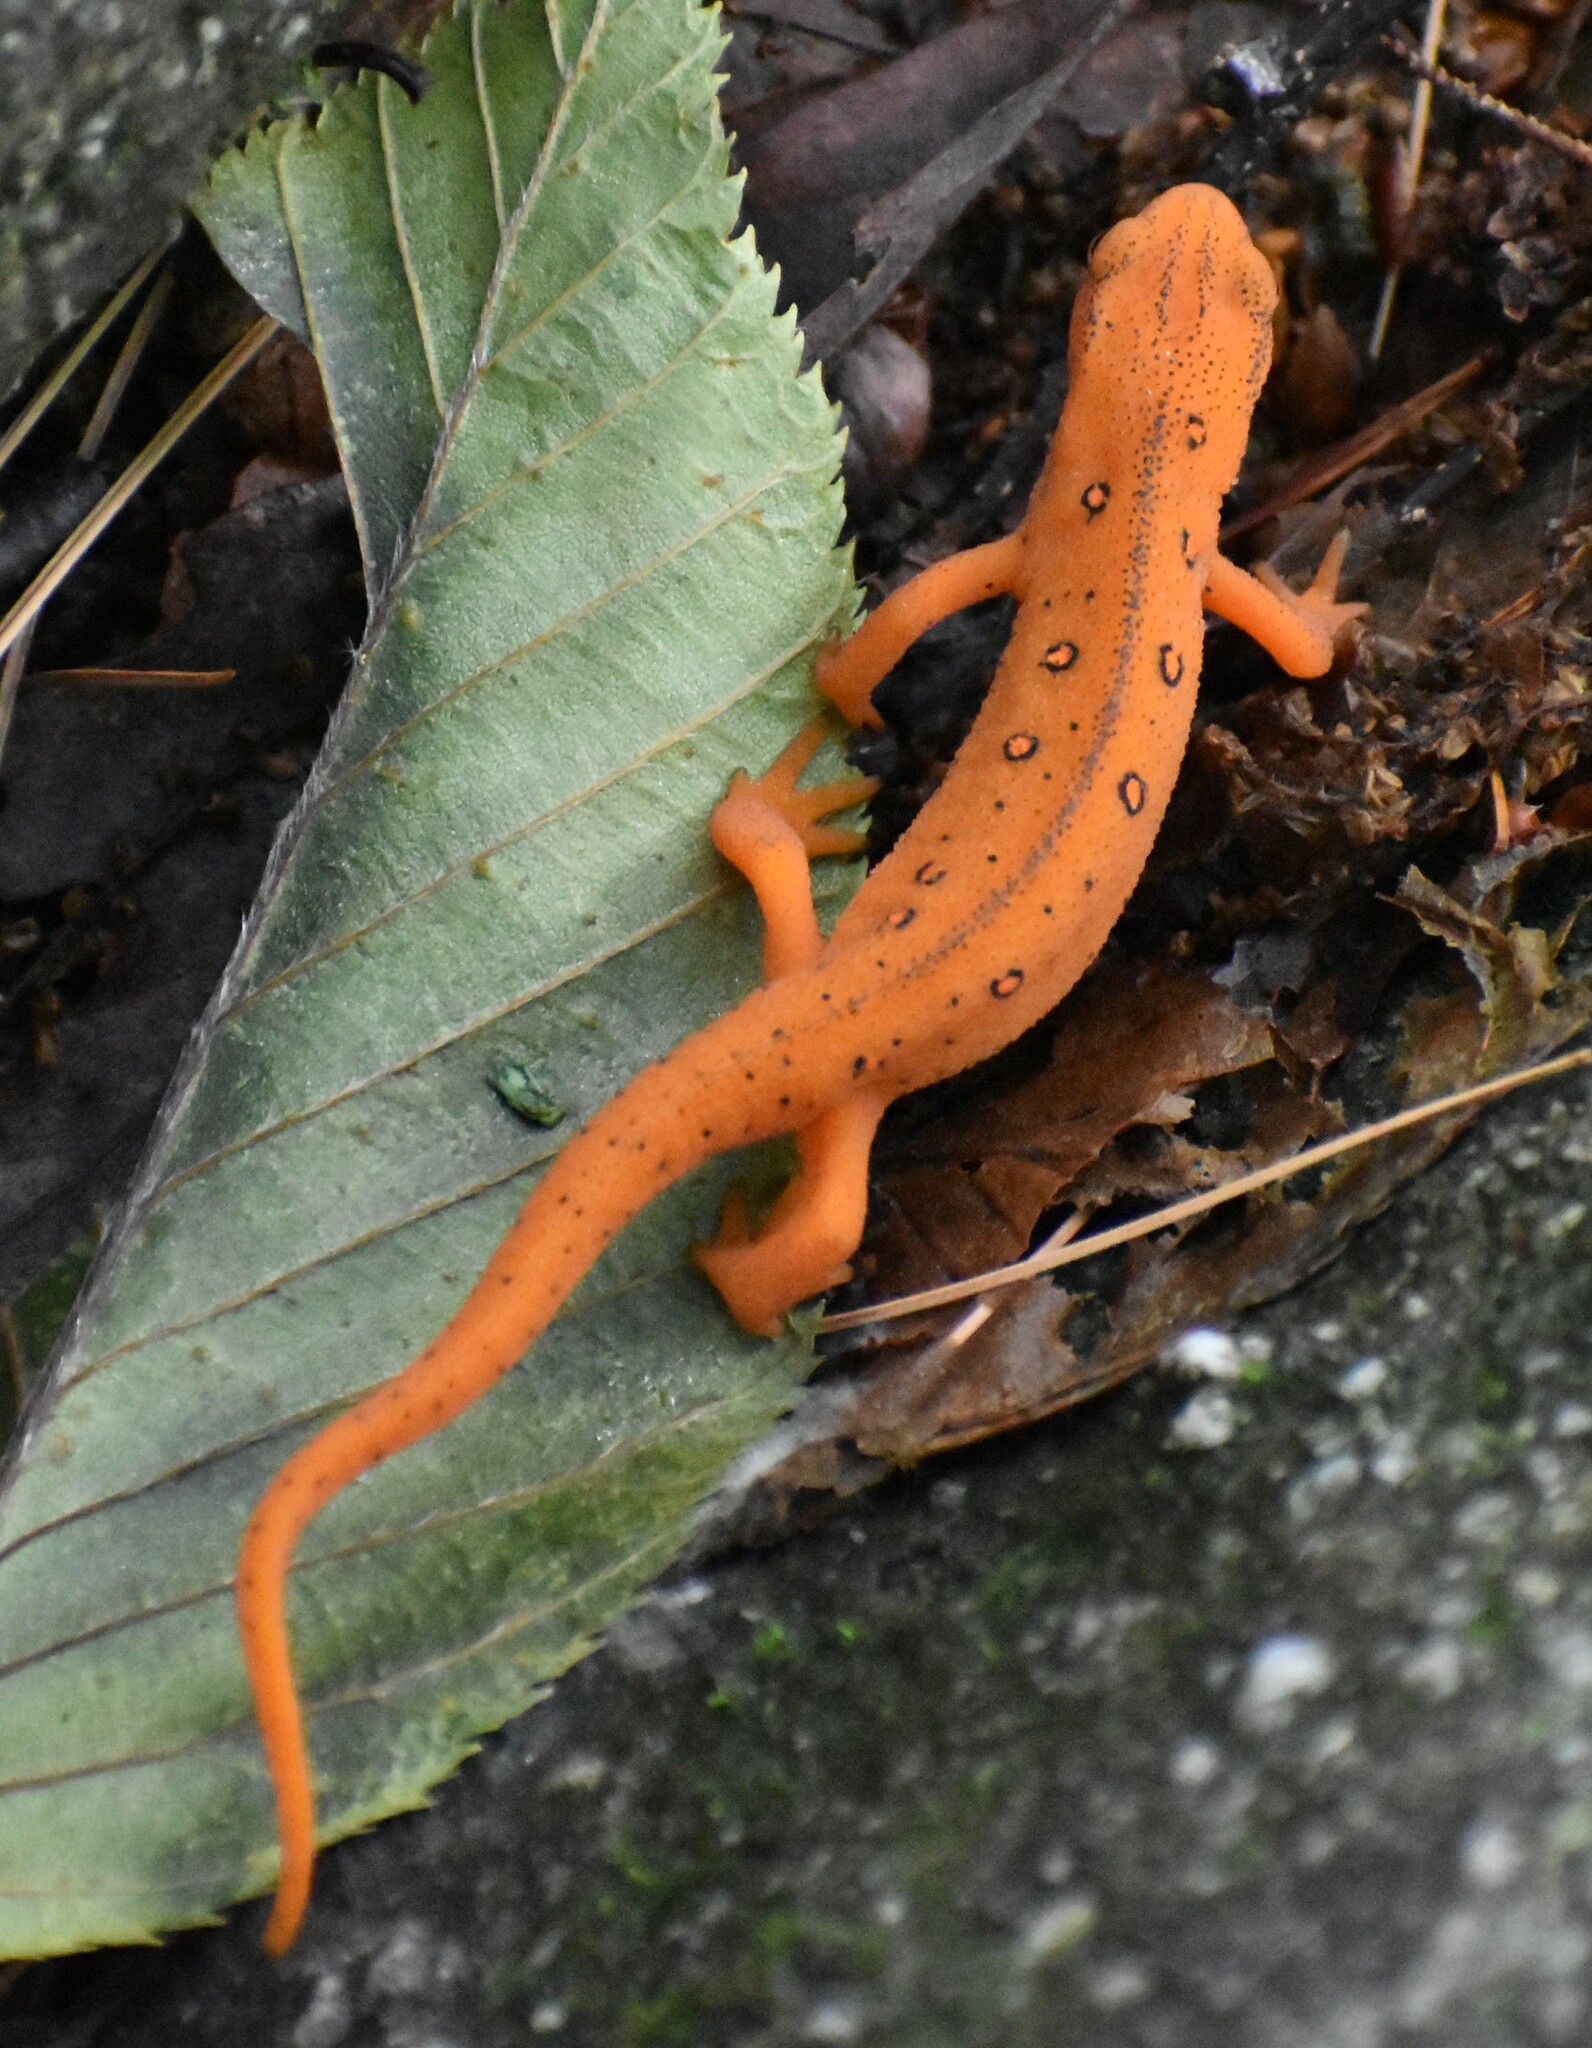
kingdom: Animalia
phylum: Chordata
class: Amphibia
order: Caudata
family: Salamandridae
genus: Notophthalmus
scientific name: Notophthalmus viridescens
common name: Eastern newt
